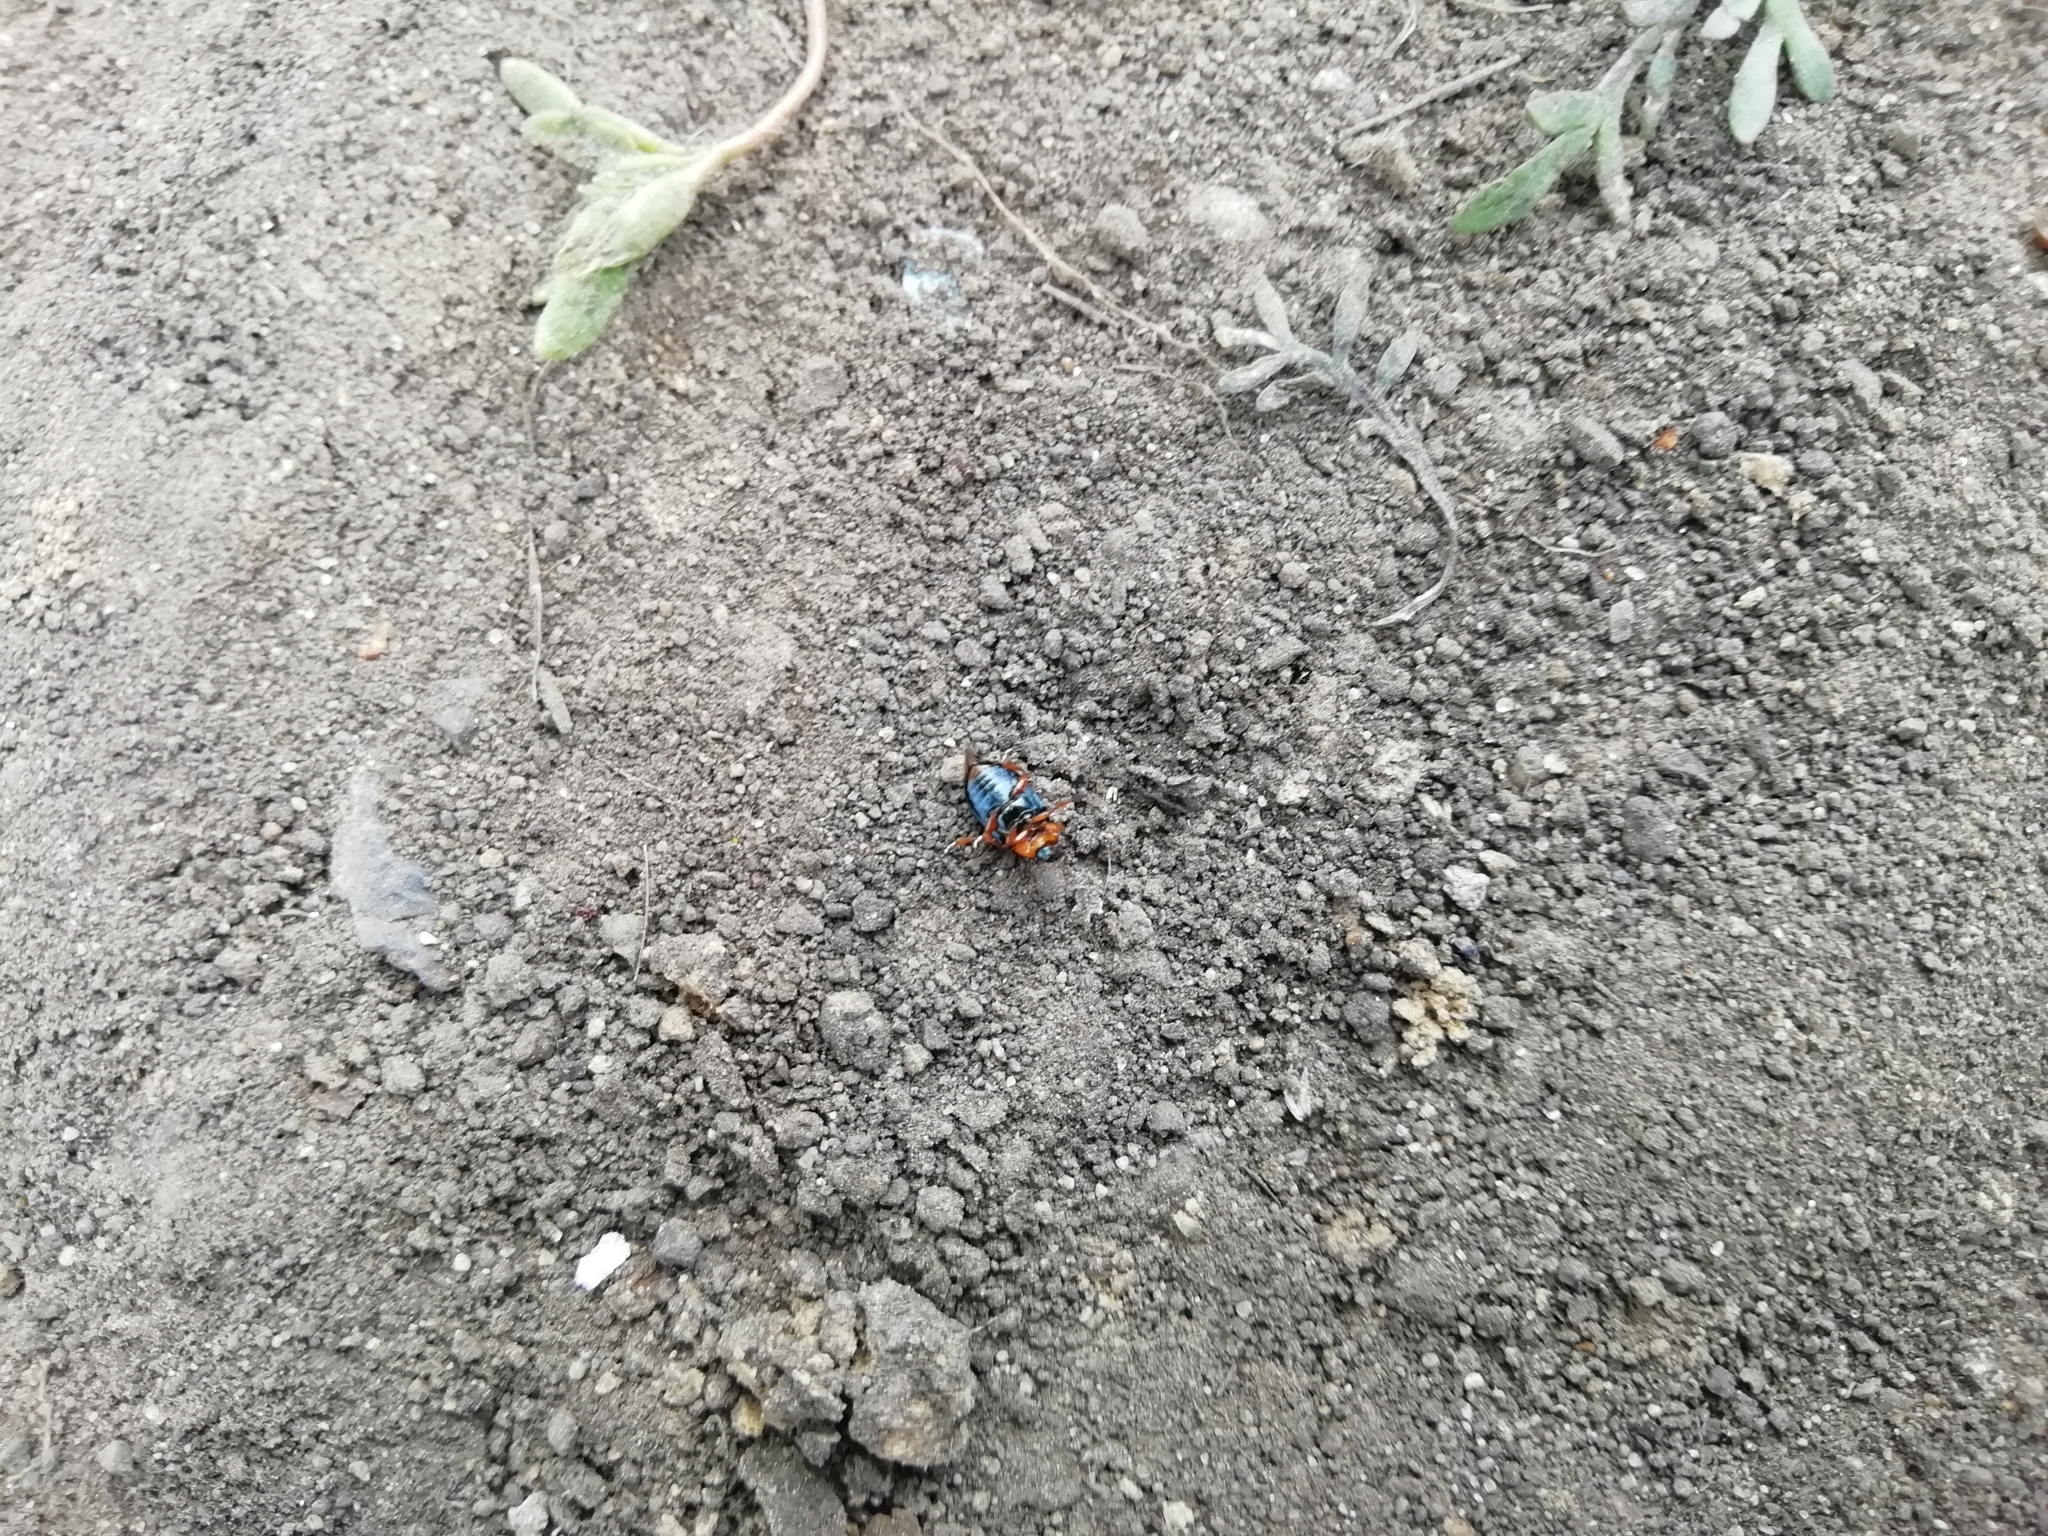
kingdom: Animalia
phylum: Arthropoda
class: Insecta
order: Coleoptera
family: Chrysomelidae
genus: Gastrophysa
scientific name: Gastrophysa polygoni
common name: Knotweed leaf beetle
